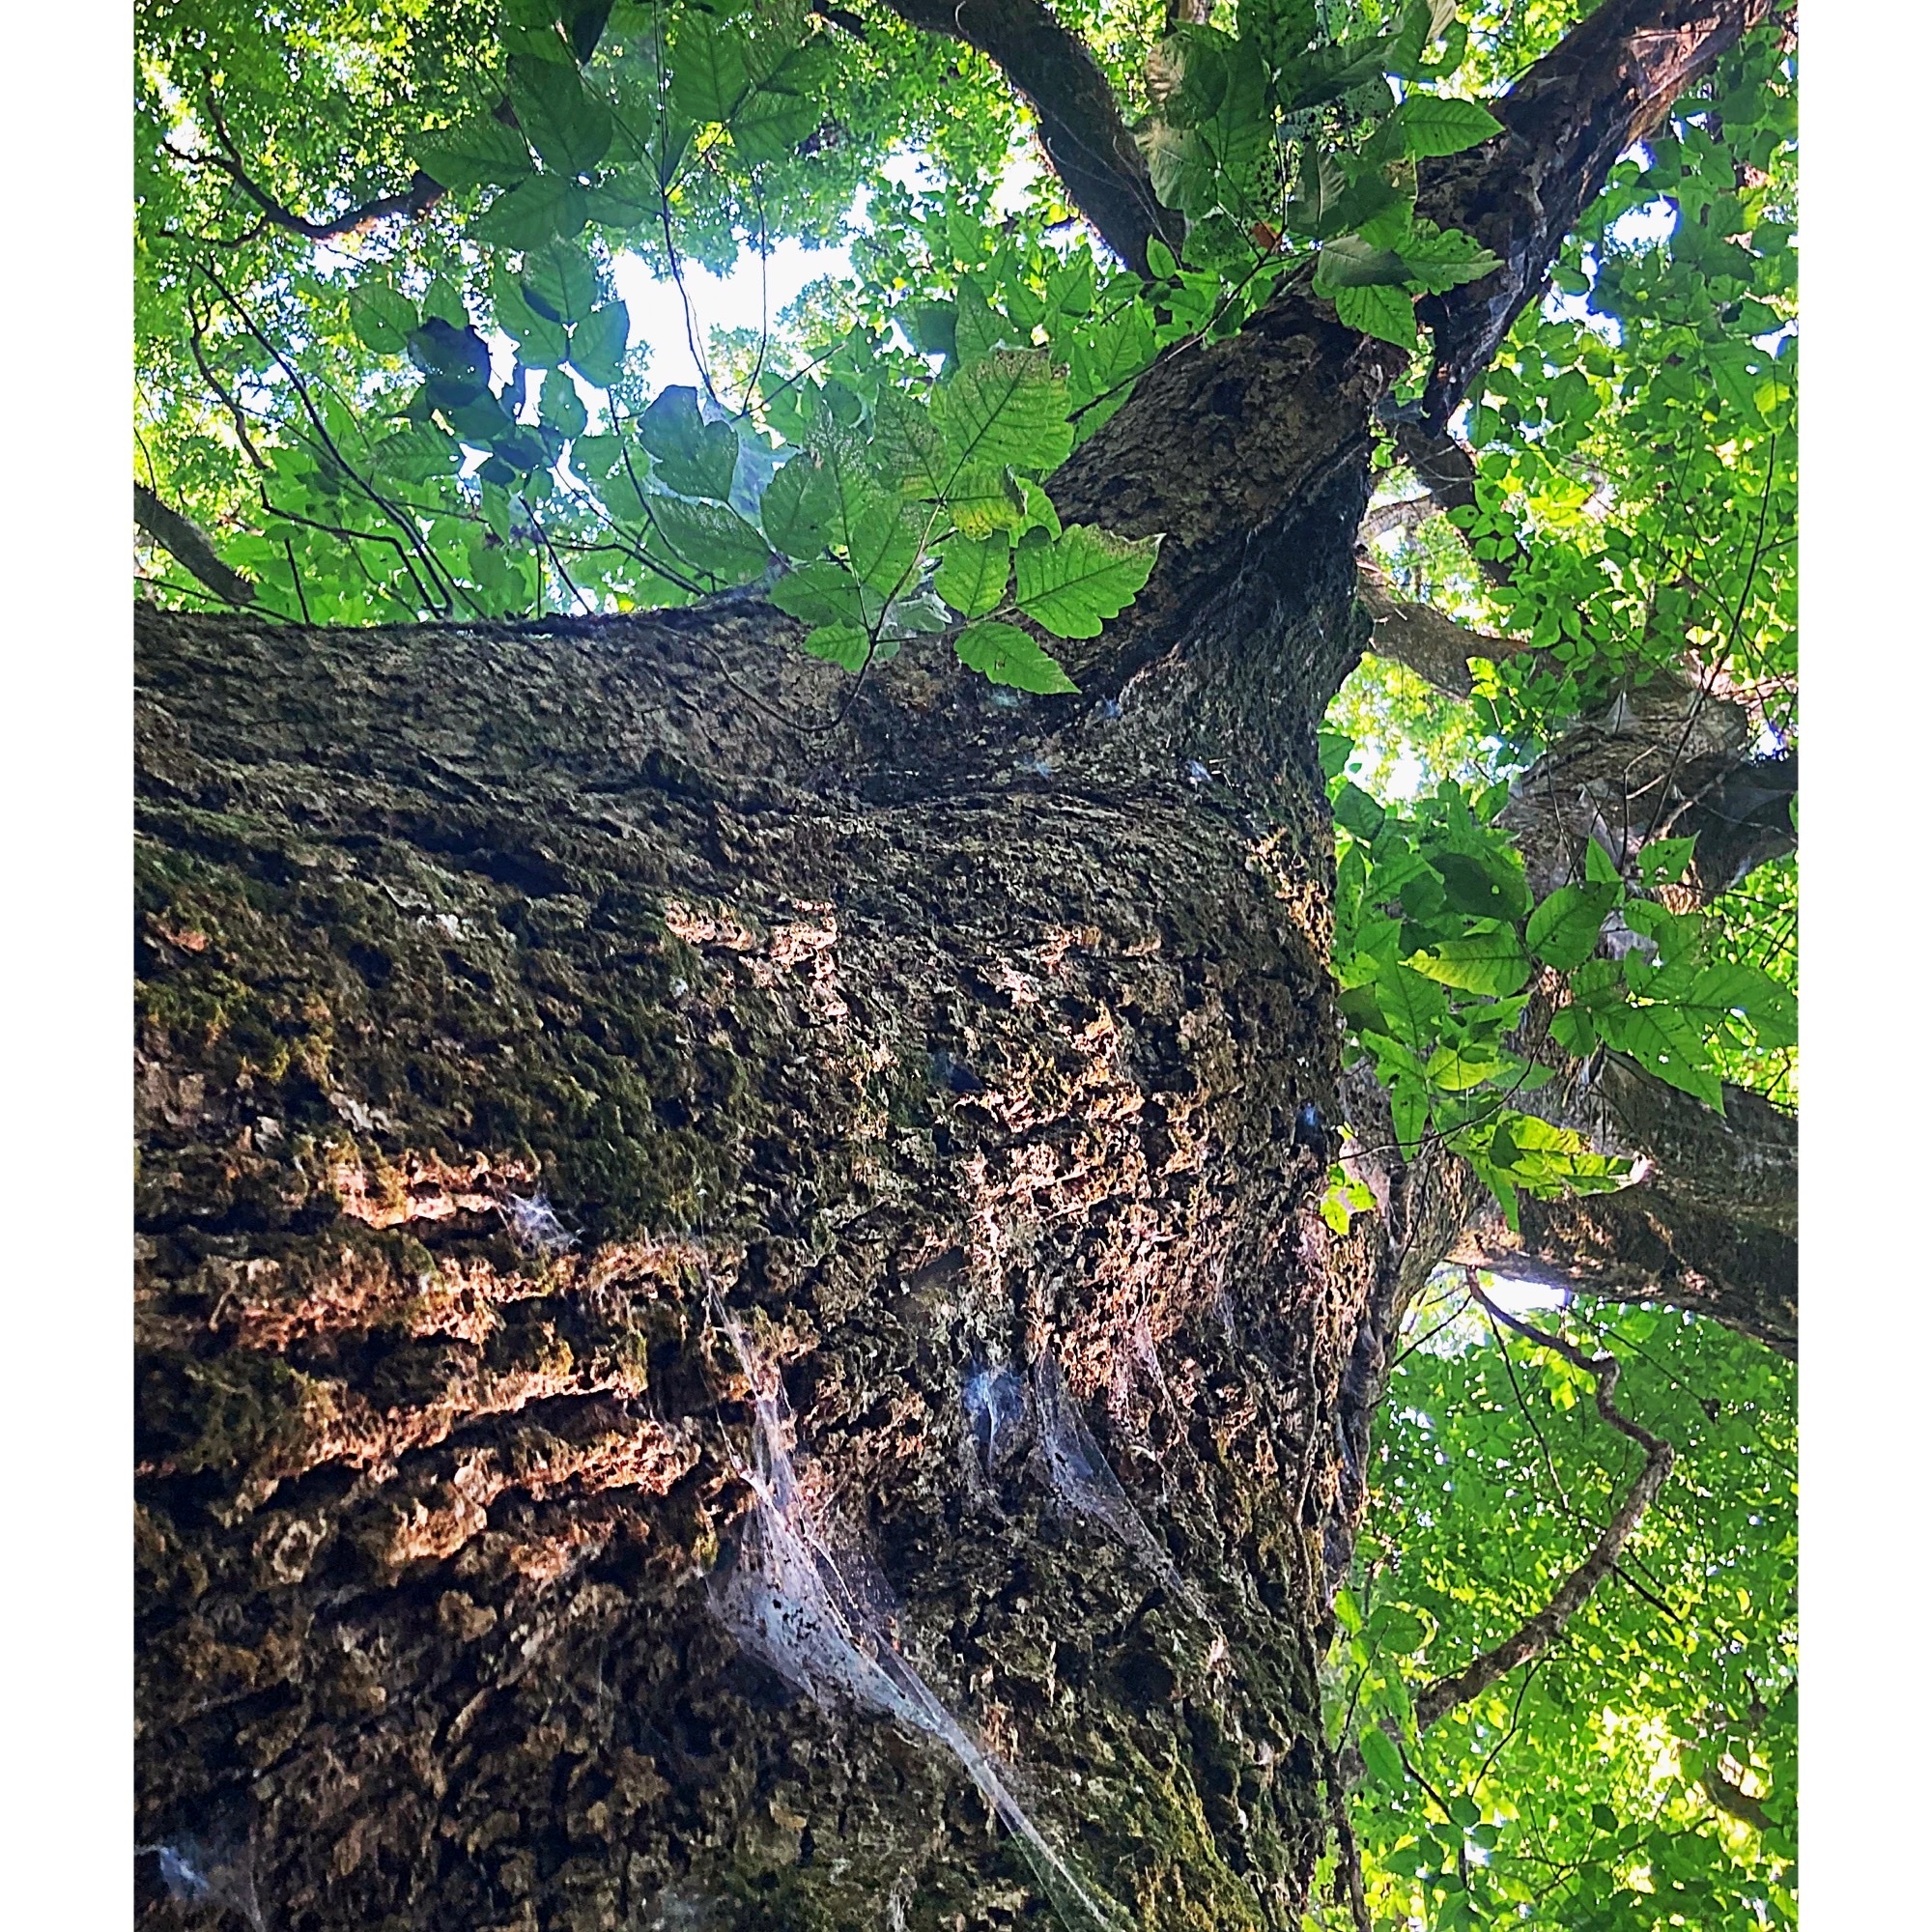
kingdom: Plantae
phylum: Tracheophyta
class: Magnoliopsida
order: Fagales
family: Fagaceae
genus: Quercus
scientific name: Quercus lyrata
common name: Overcup oak
